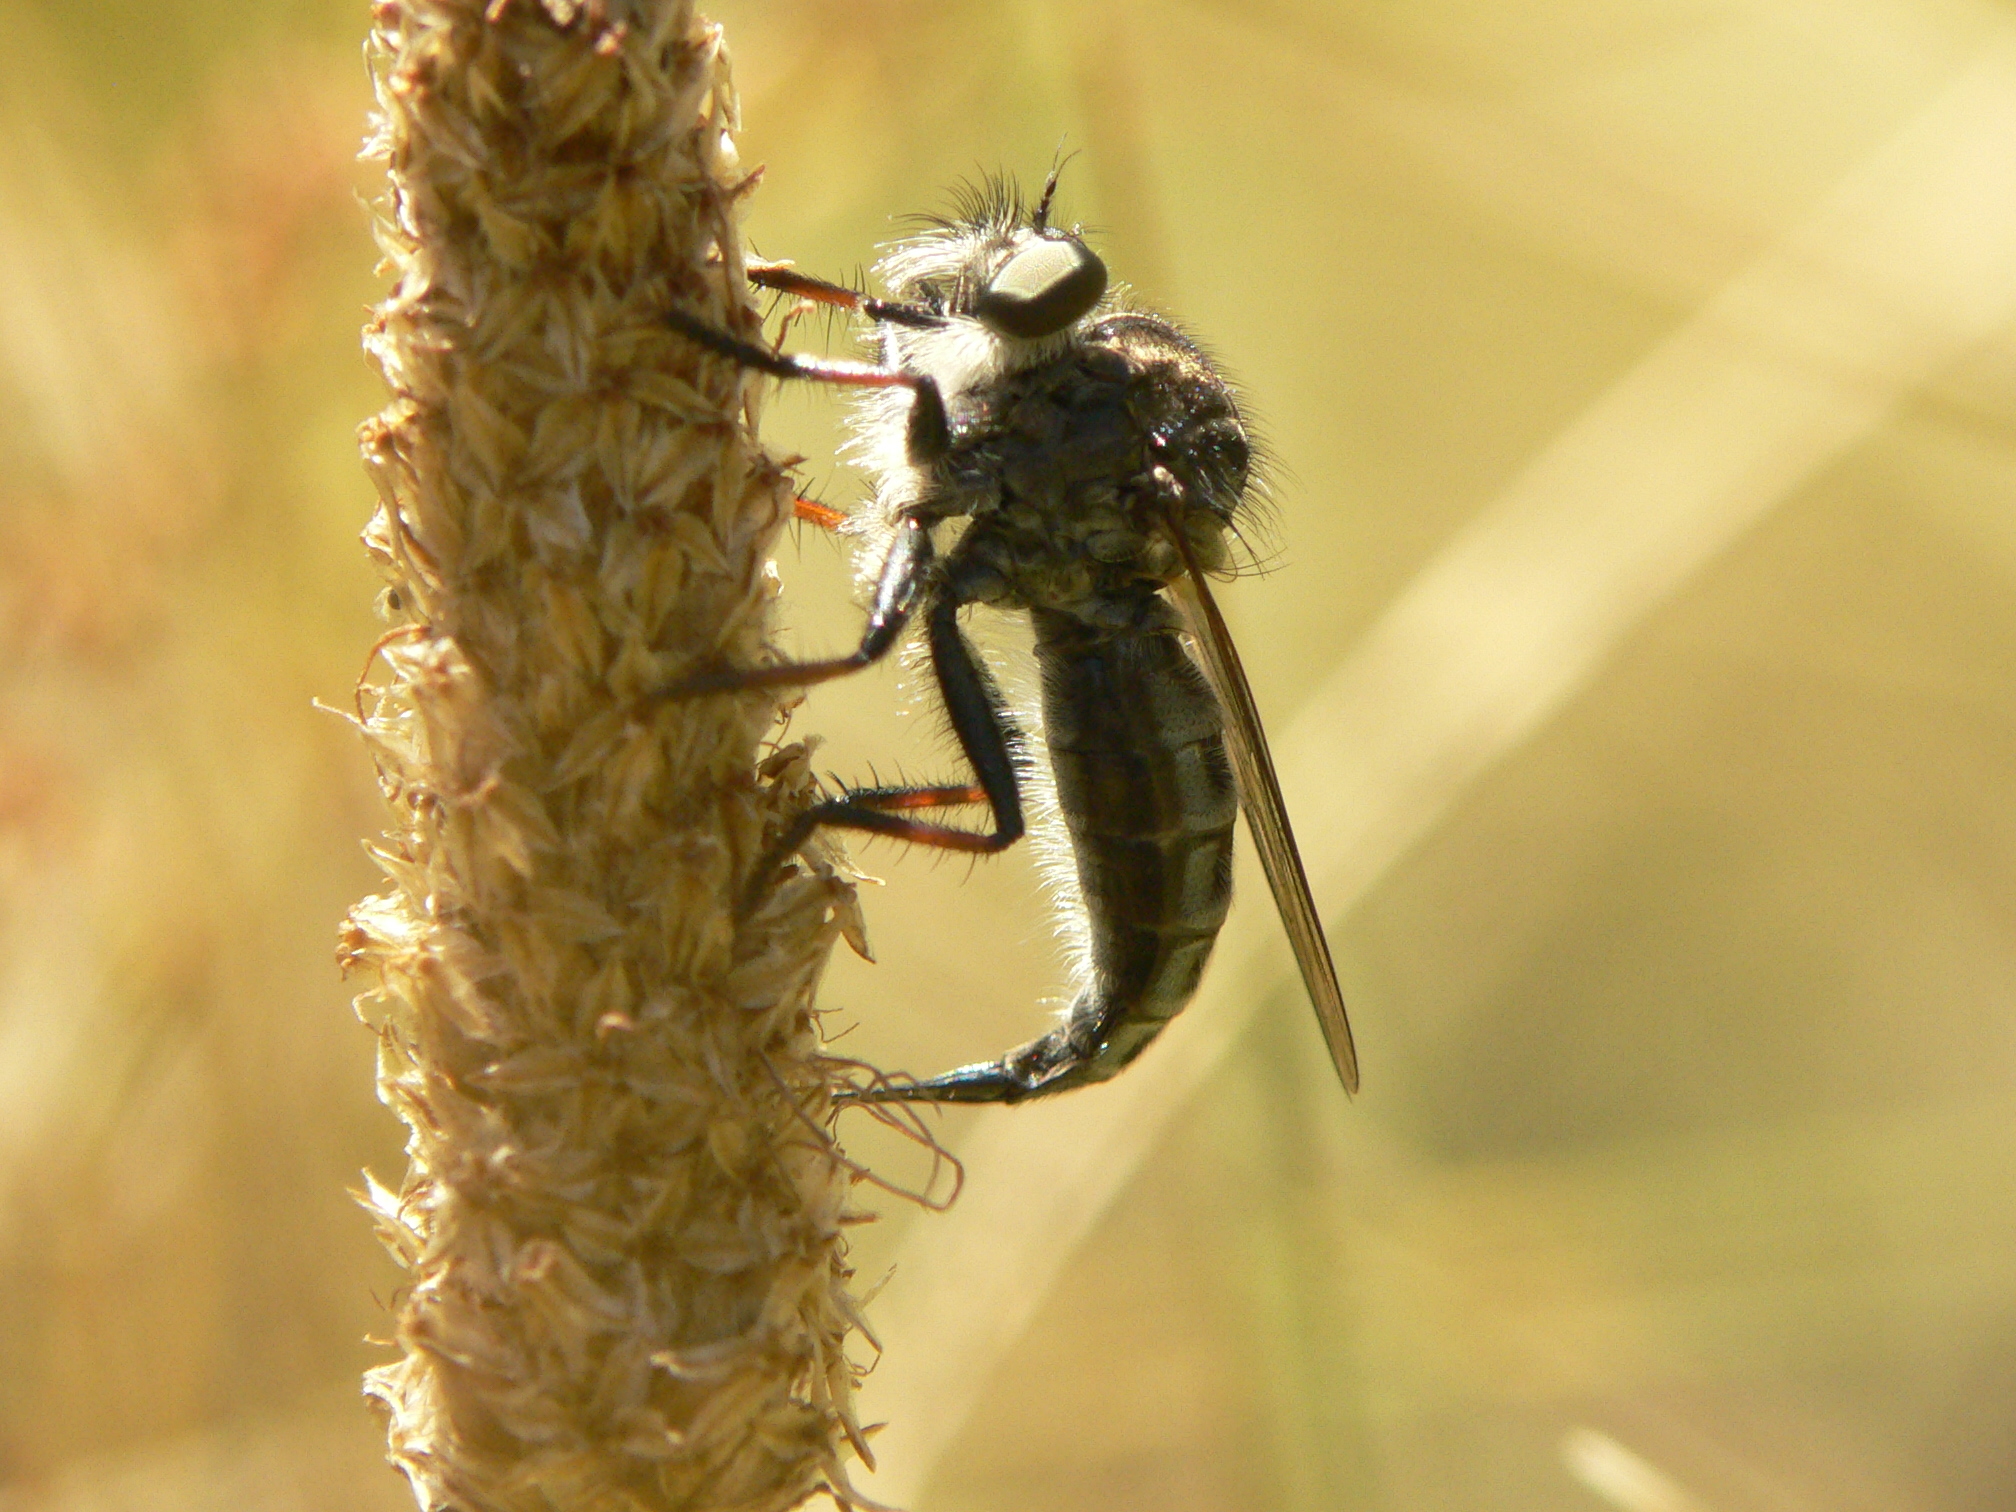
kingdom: Animalia
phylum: Arthropoda
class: Insecta
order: Diptera
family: Asilidae
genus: Efferia
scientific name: Efferia aestuans
